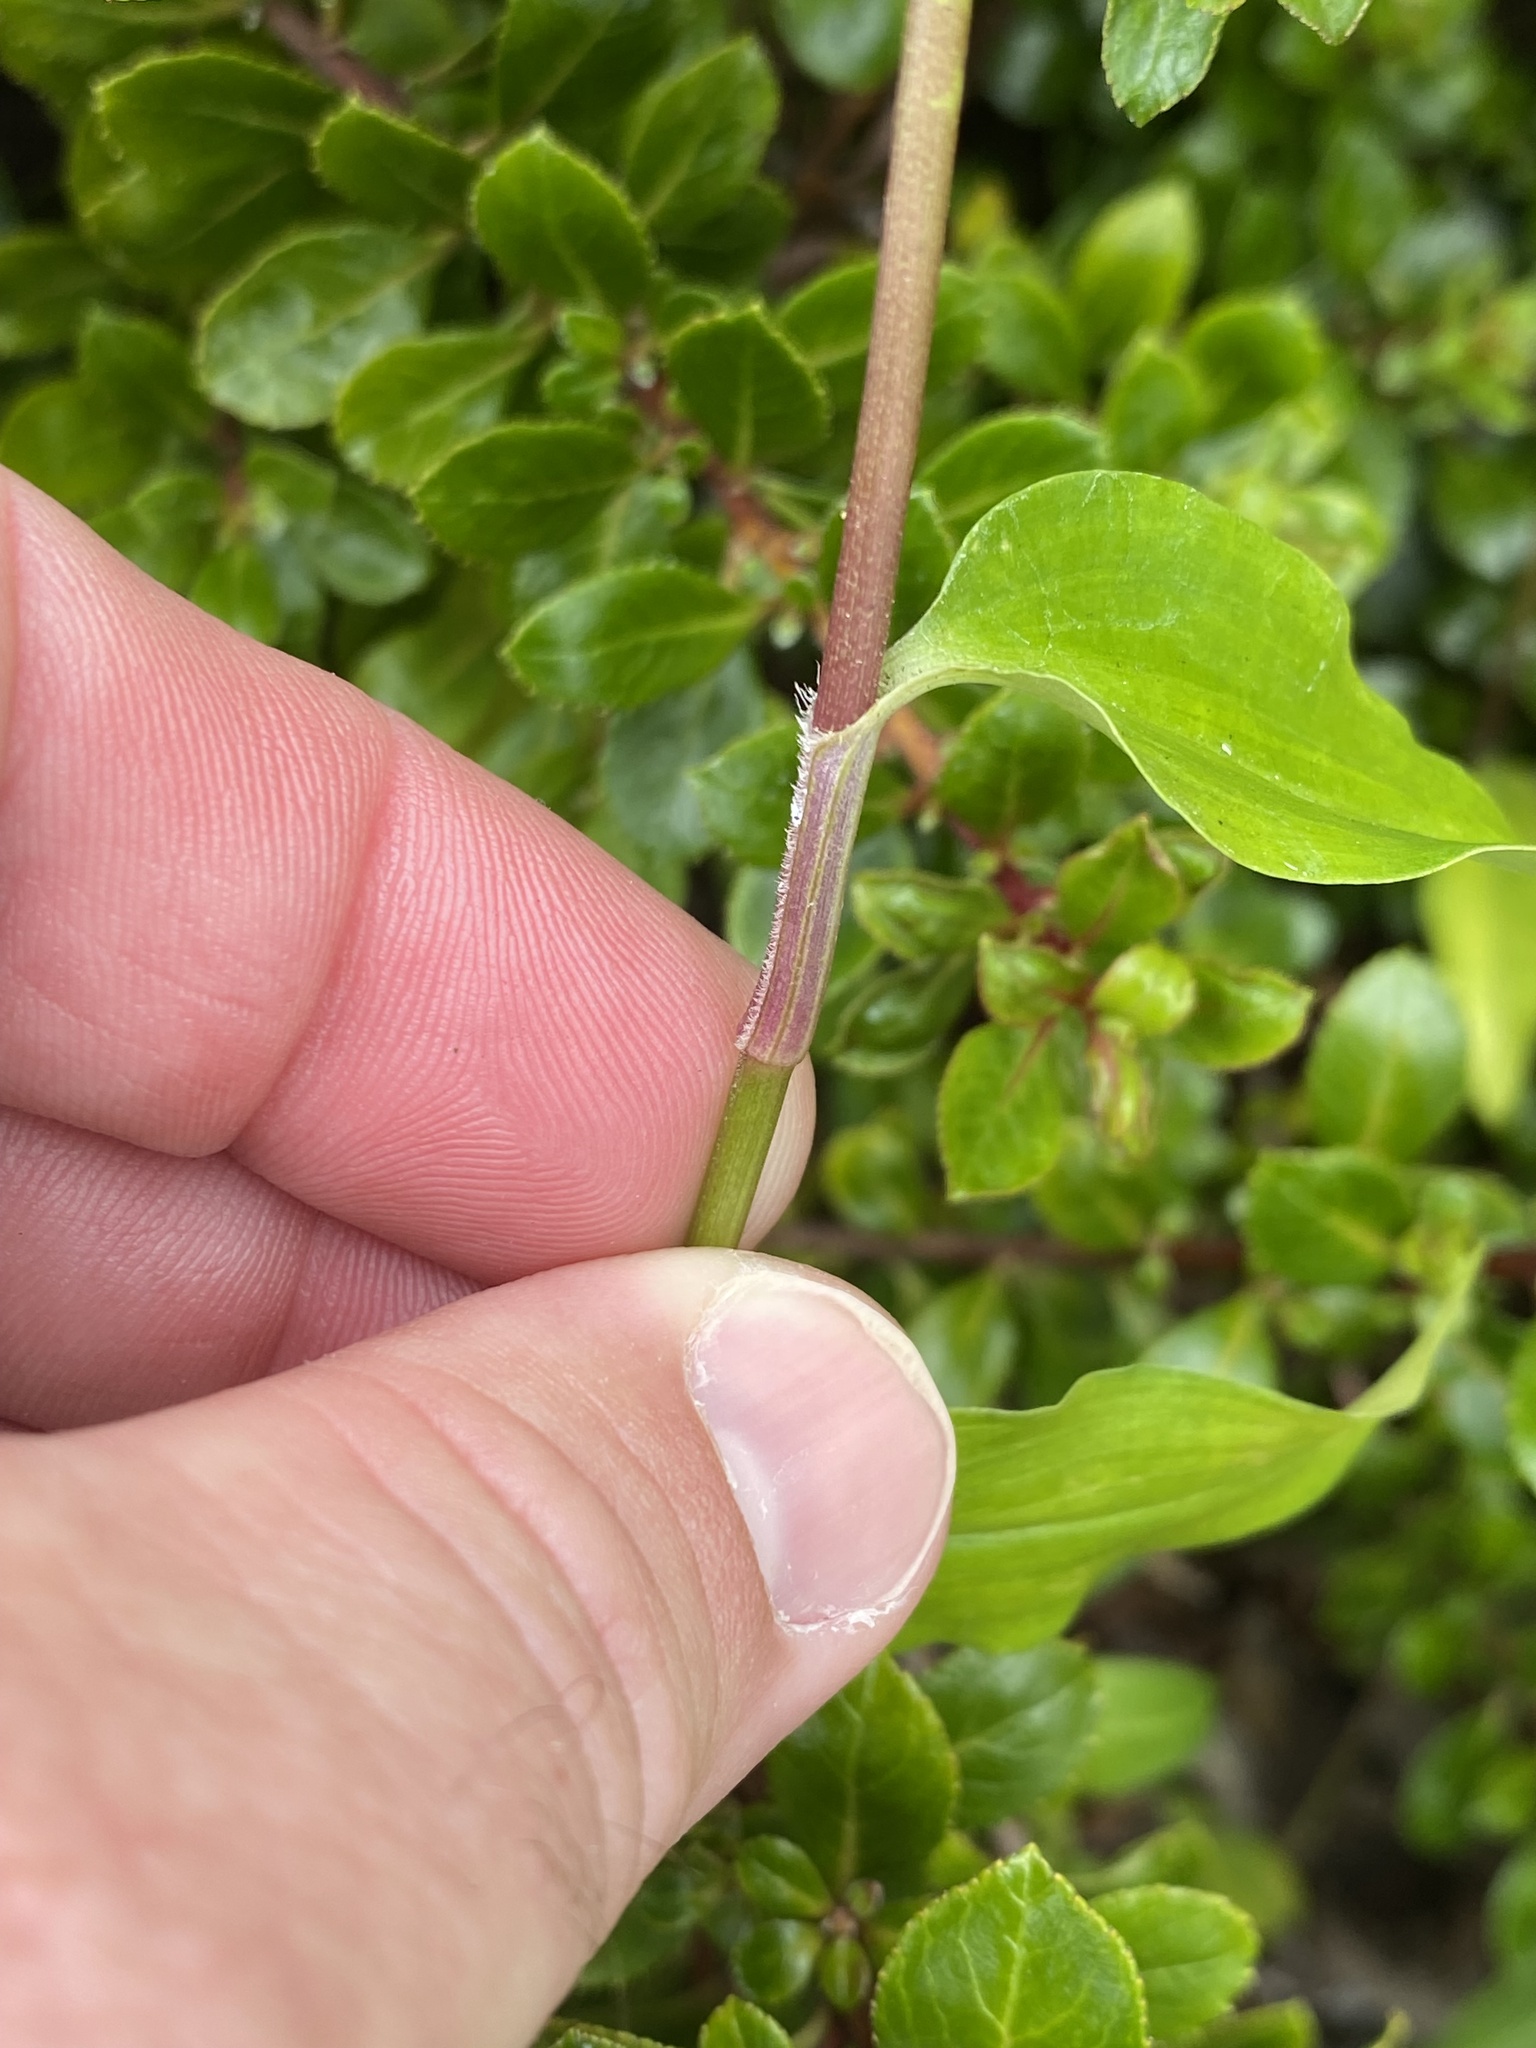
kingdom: Plantae
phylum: Tracheophyta
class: Liliopsida
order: Commelinales
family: Commelinaceae
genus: Commelina
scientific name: Commelina cyanea
